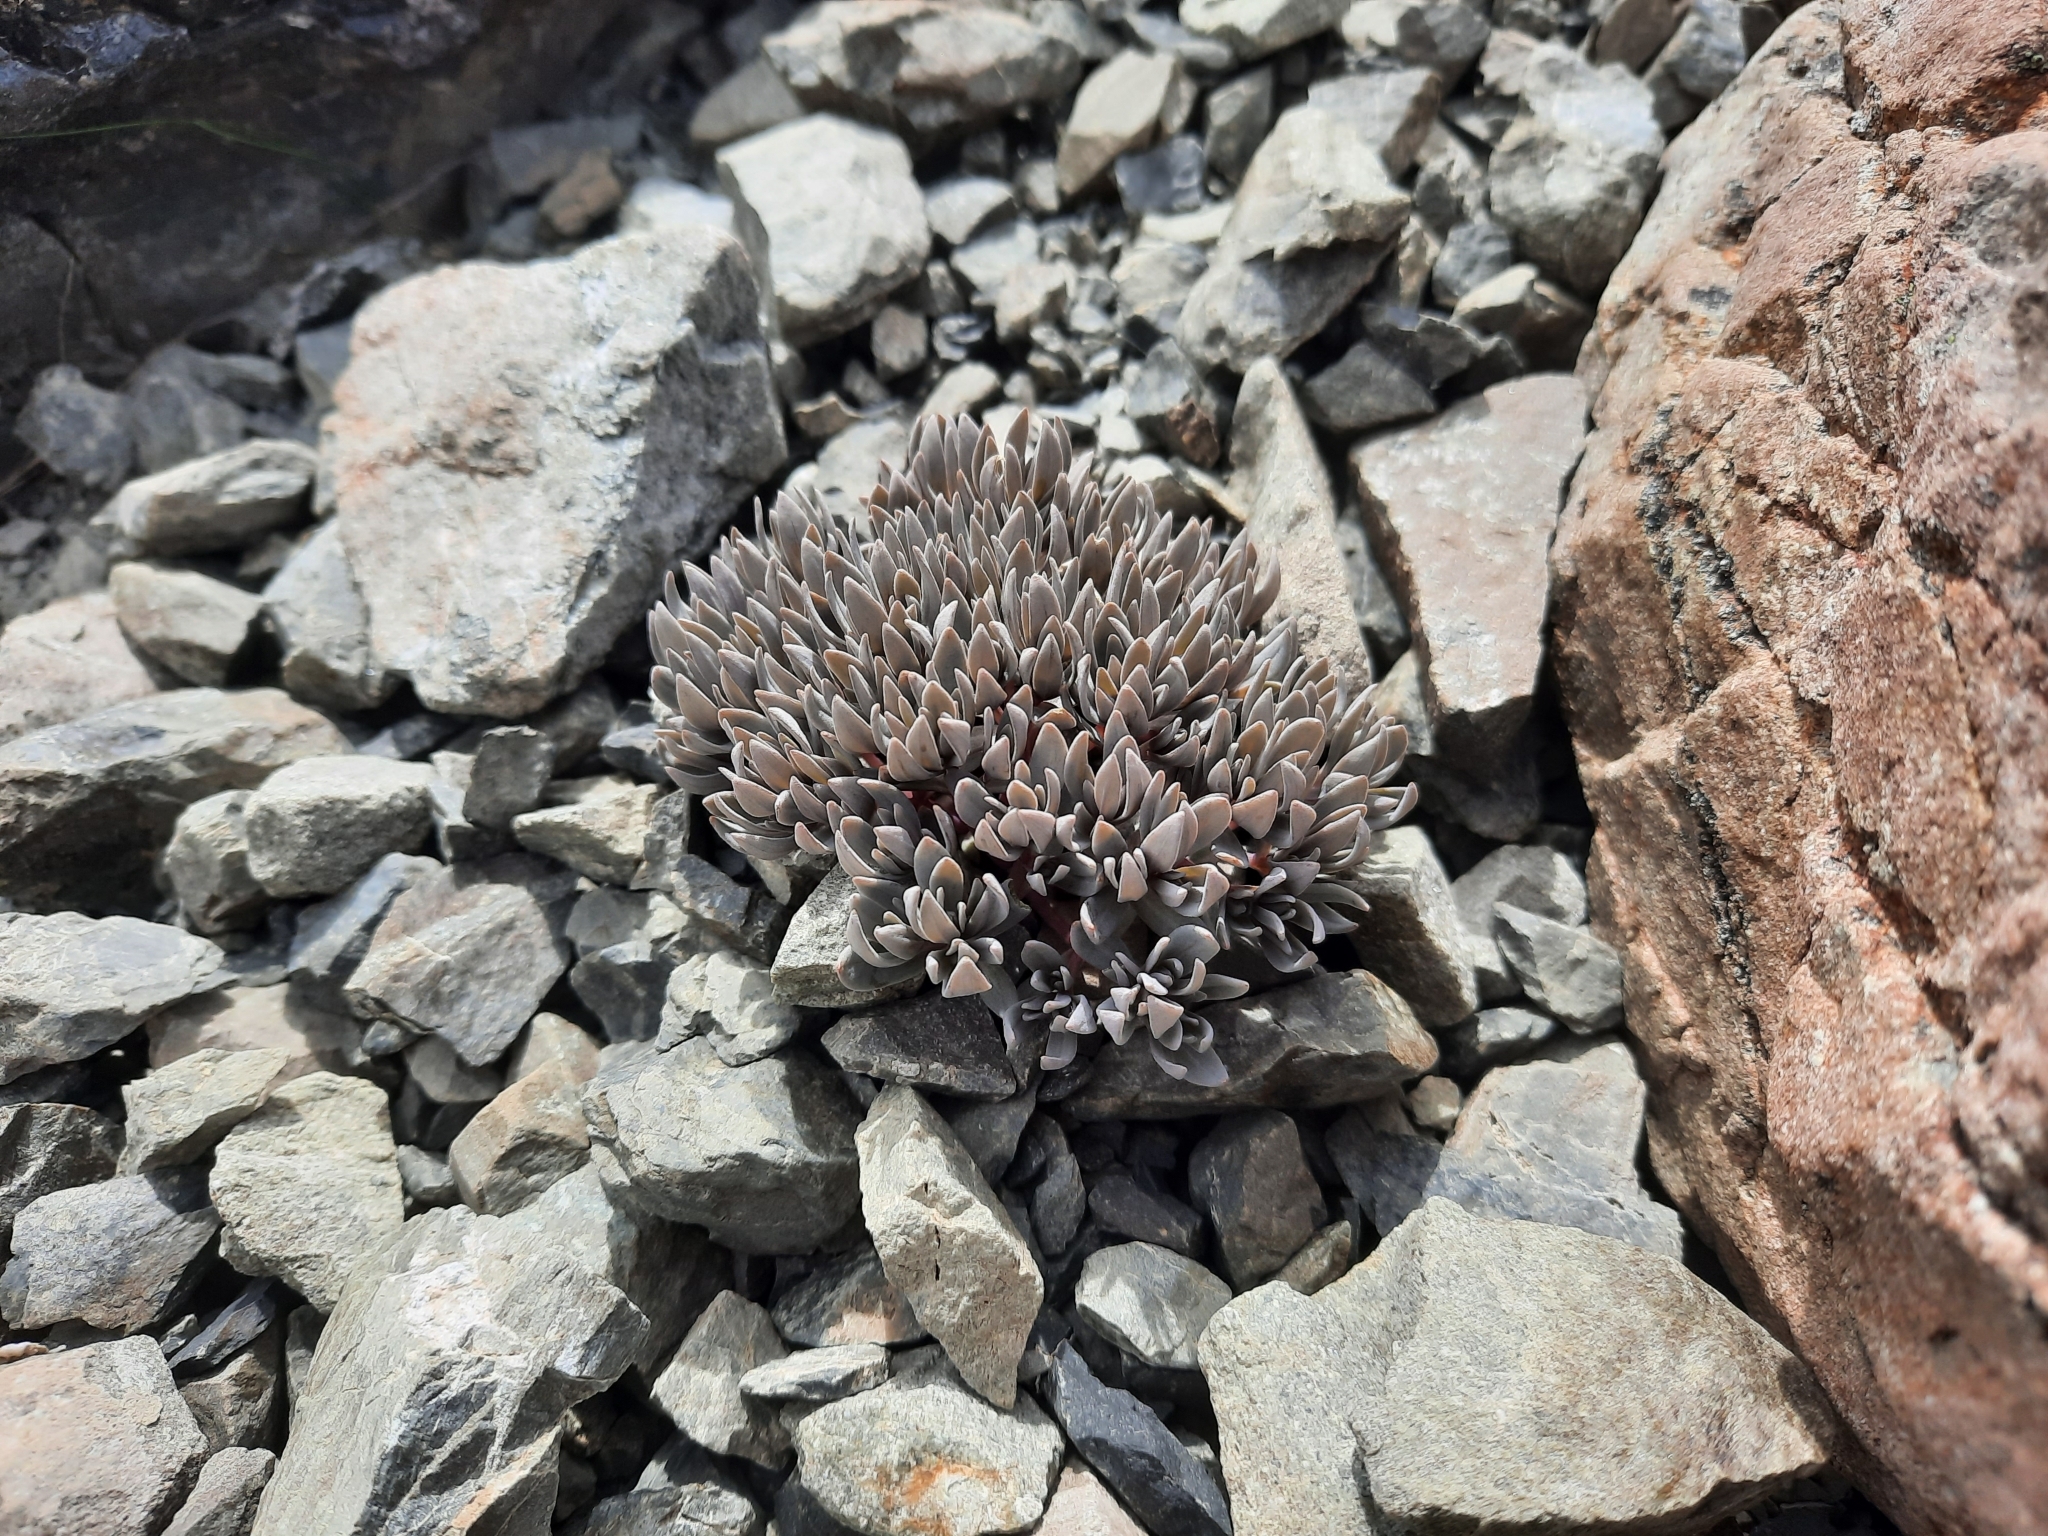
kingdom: Plantae
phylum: Tracheophyta
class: Magnoliopsida
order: Caryophyllales
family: Caryophyllaceae
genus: Stellaria
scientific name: Stellaria roughii
